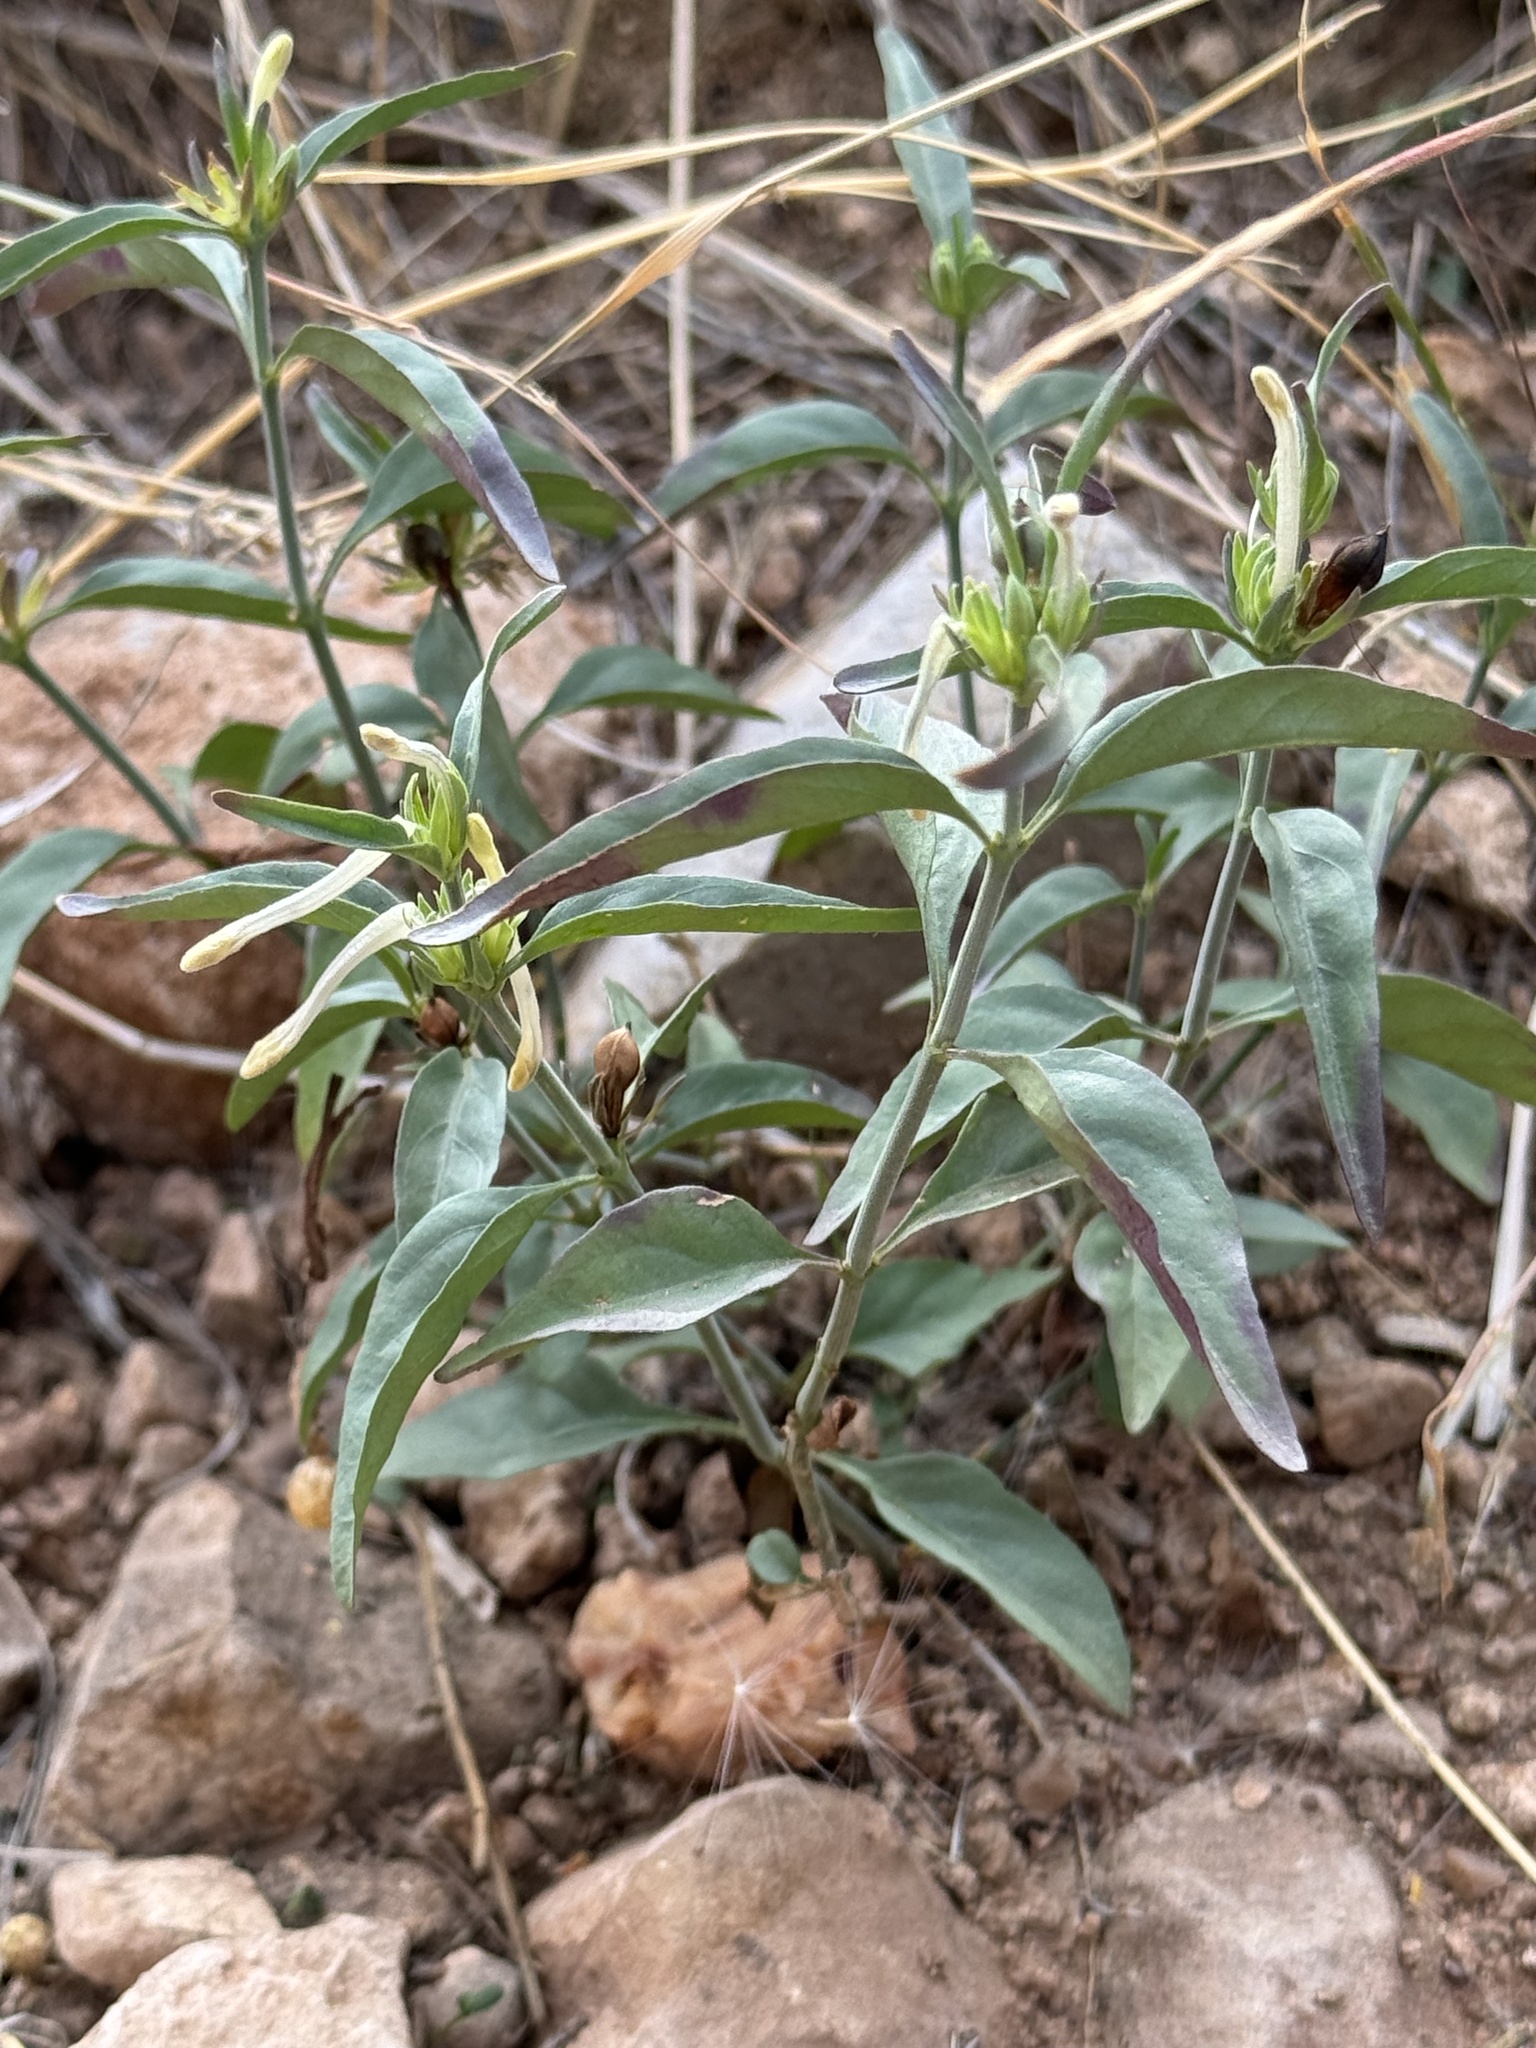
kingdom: Plantae
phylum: Tracheophyta
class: Magnoliopsida
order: Lamiales
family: Acanthaceae
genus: Justicia
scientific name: Justicia longii
